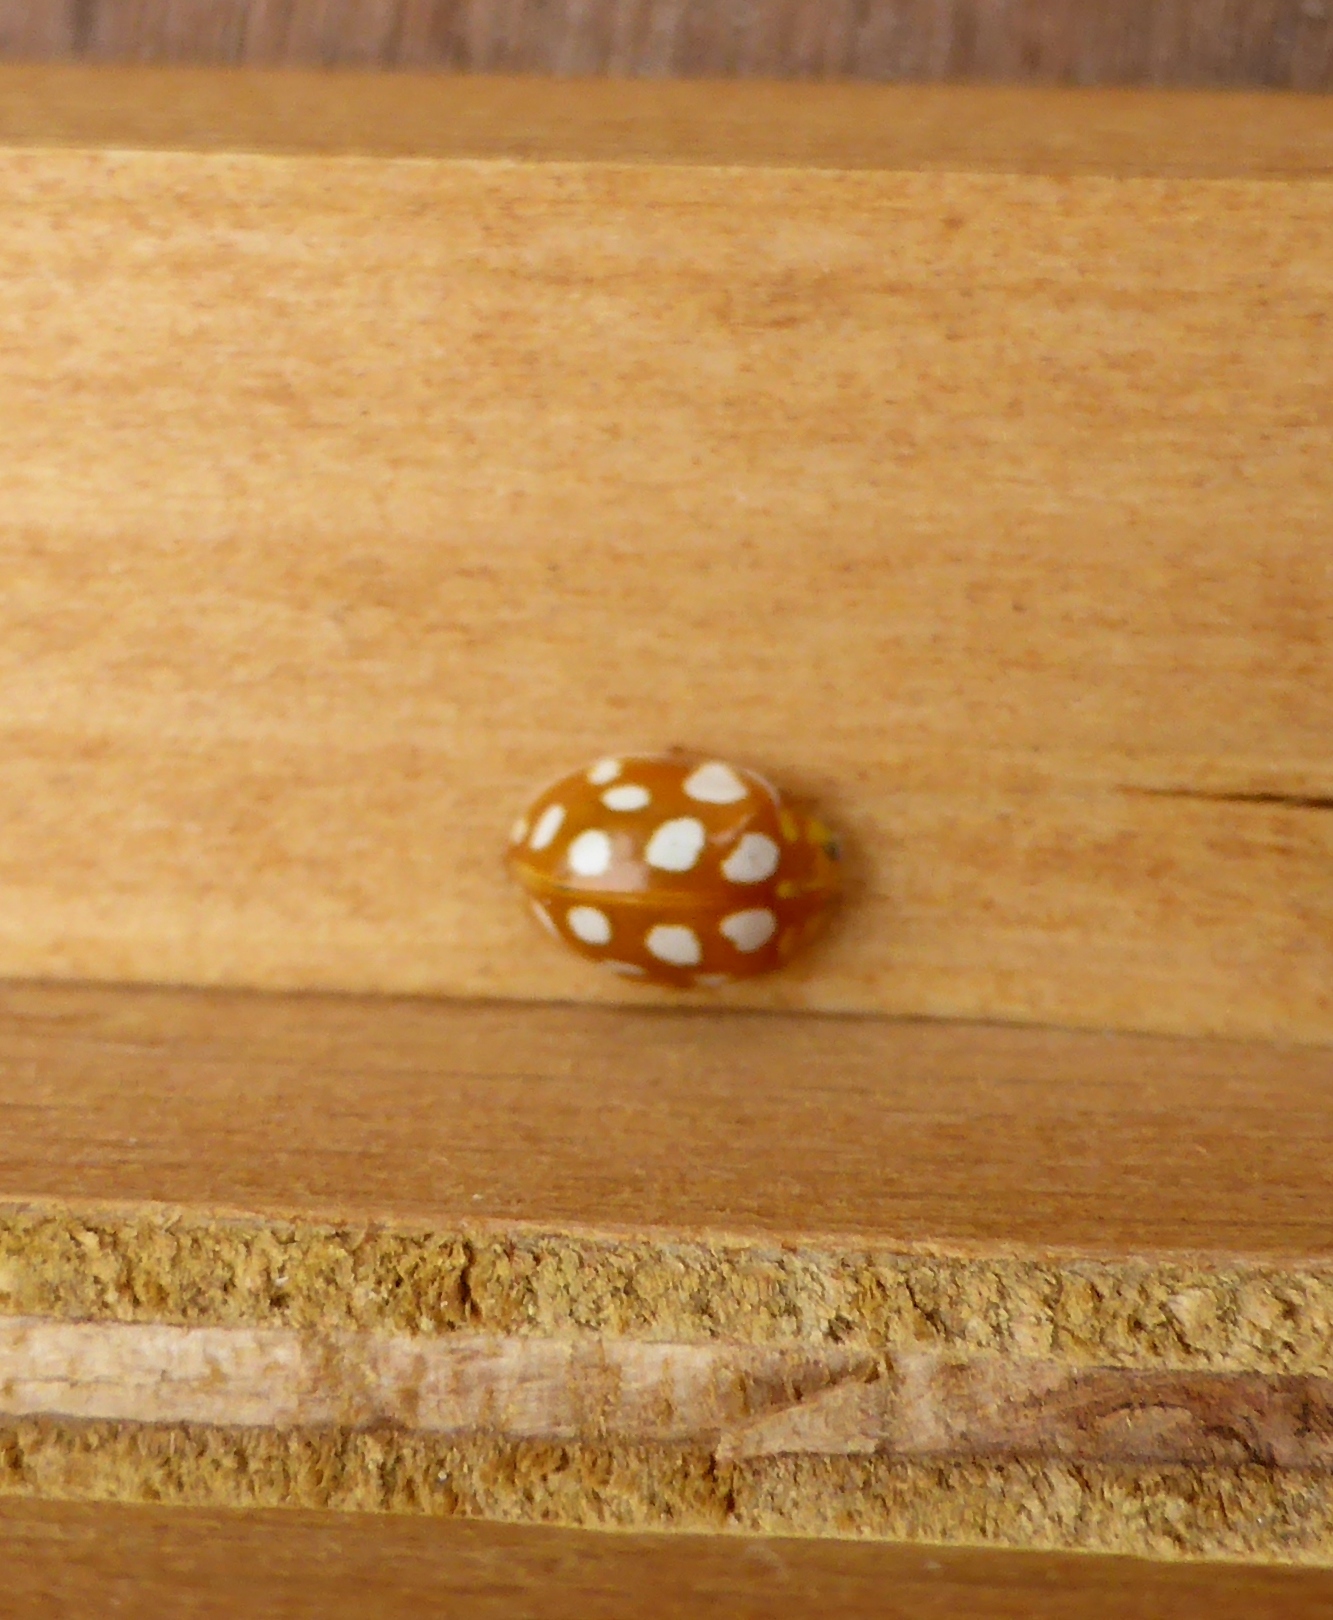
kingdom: Animalia
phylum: Arthropoda
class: Insecta
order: Coleoptera
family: Coccinellidae
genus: Halyzia
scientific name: Halyzia sedecimguttata
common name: Orange ladybird
